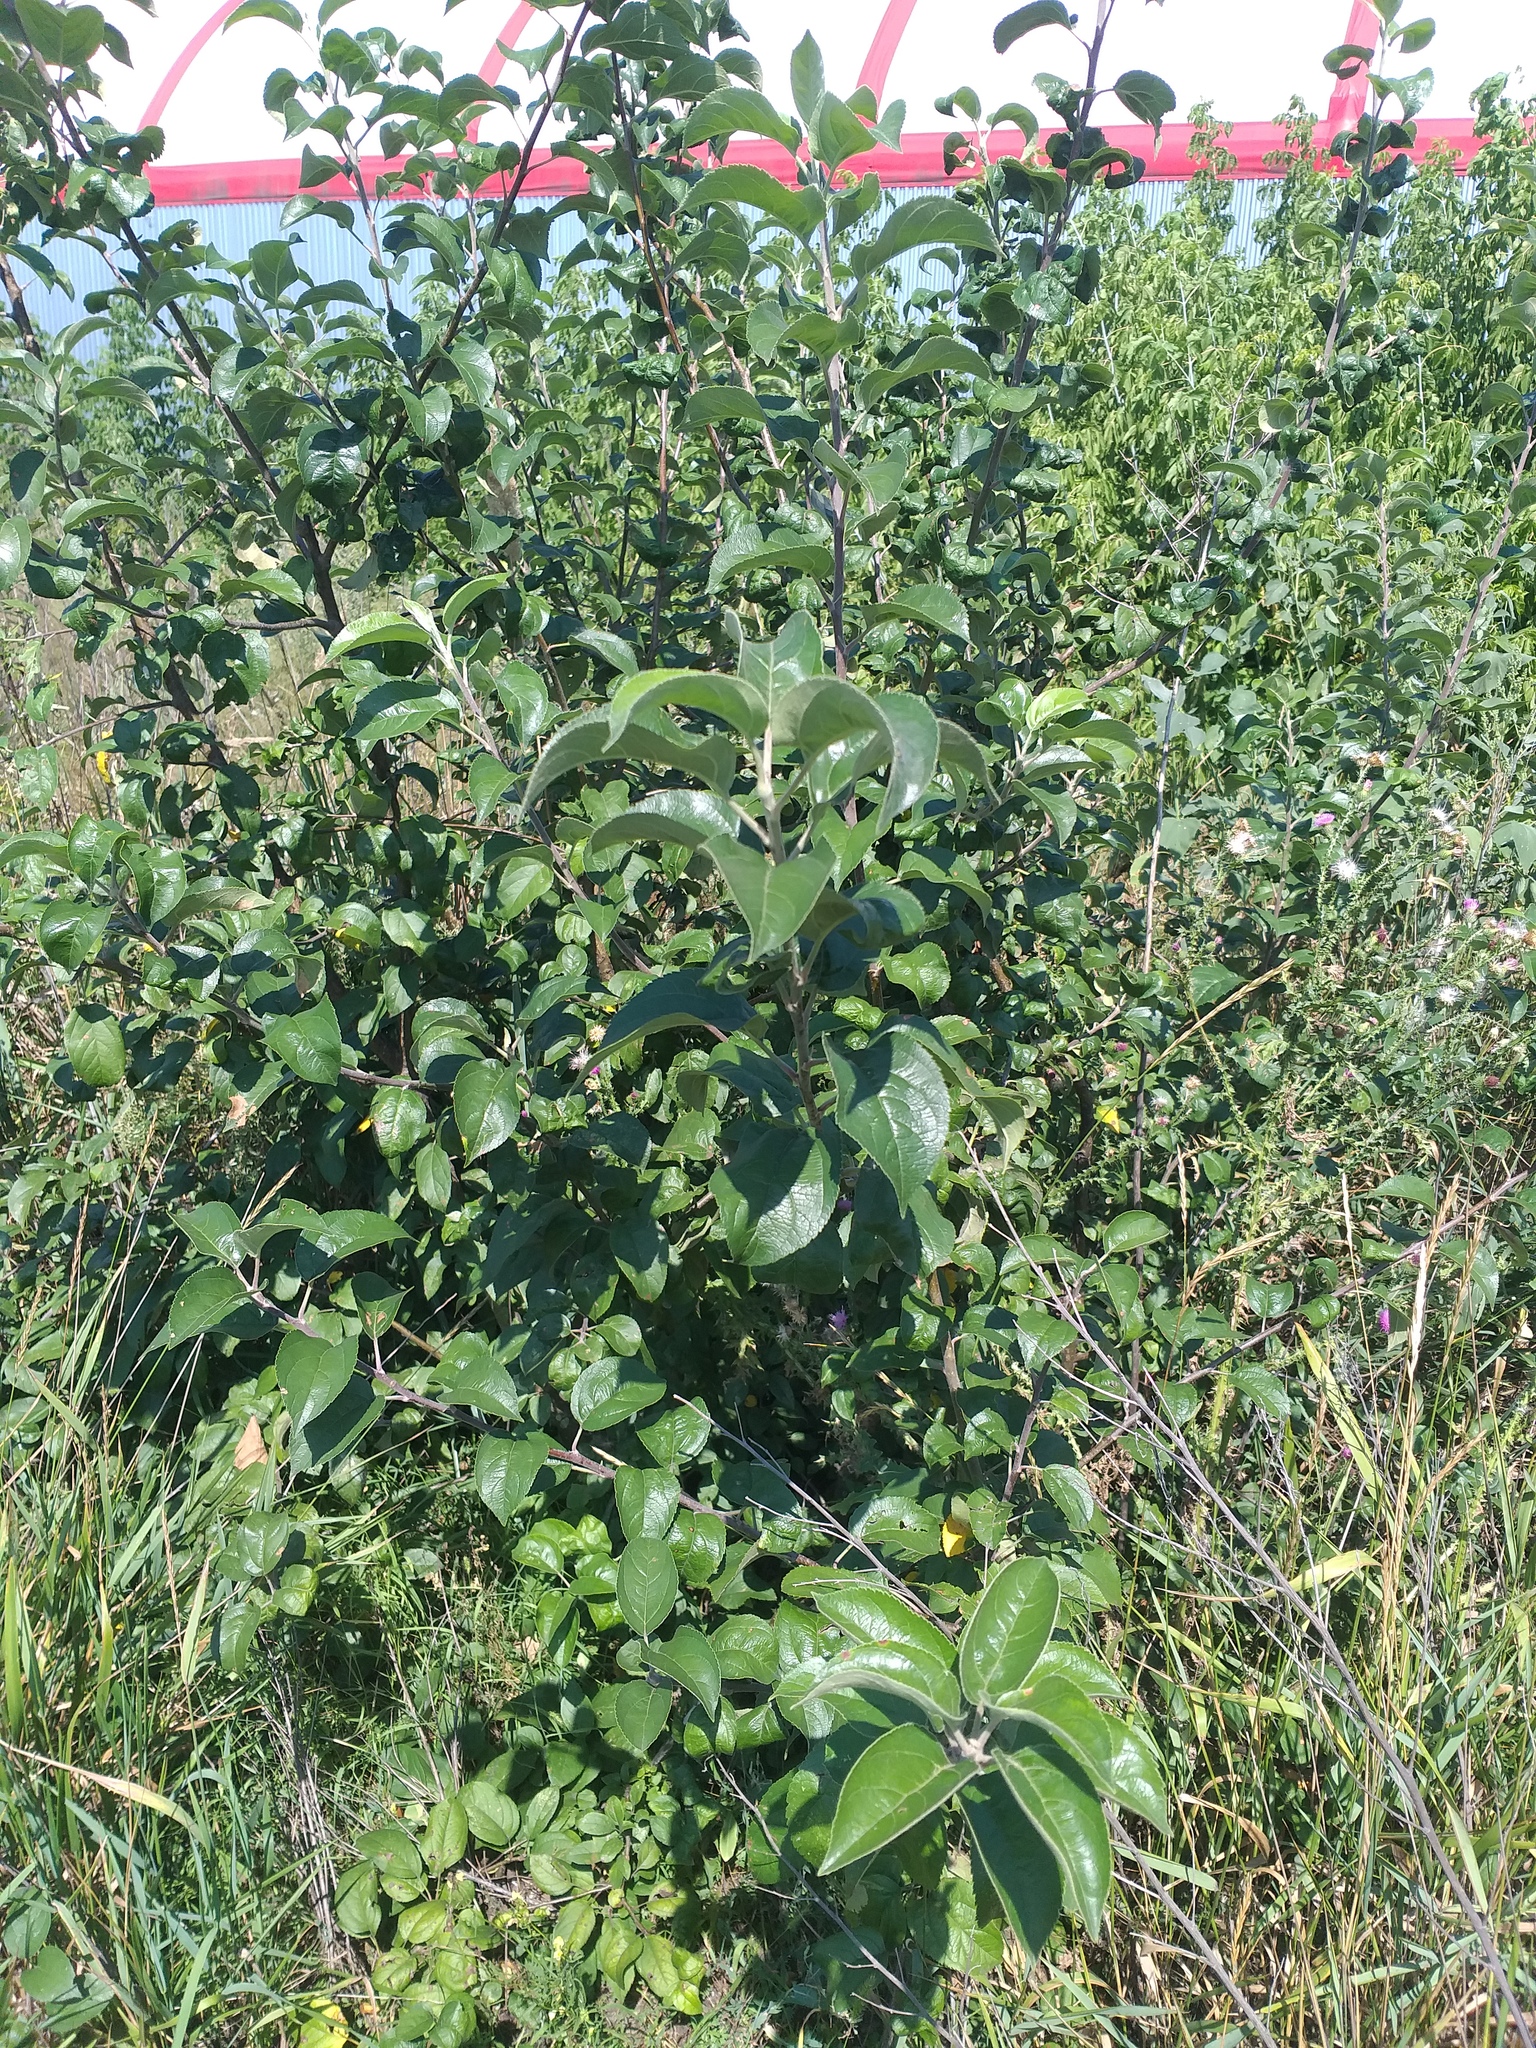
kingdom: Plantae
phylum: Tracheophyta
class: Magnoliopsida
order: Rosales
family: Rosaceae
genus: Malus
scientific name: Malus domestica
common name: Apple
